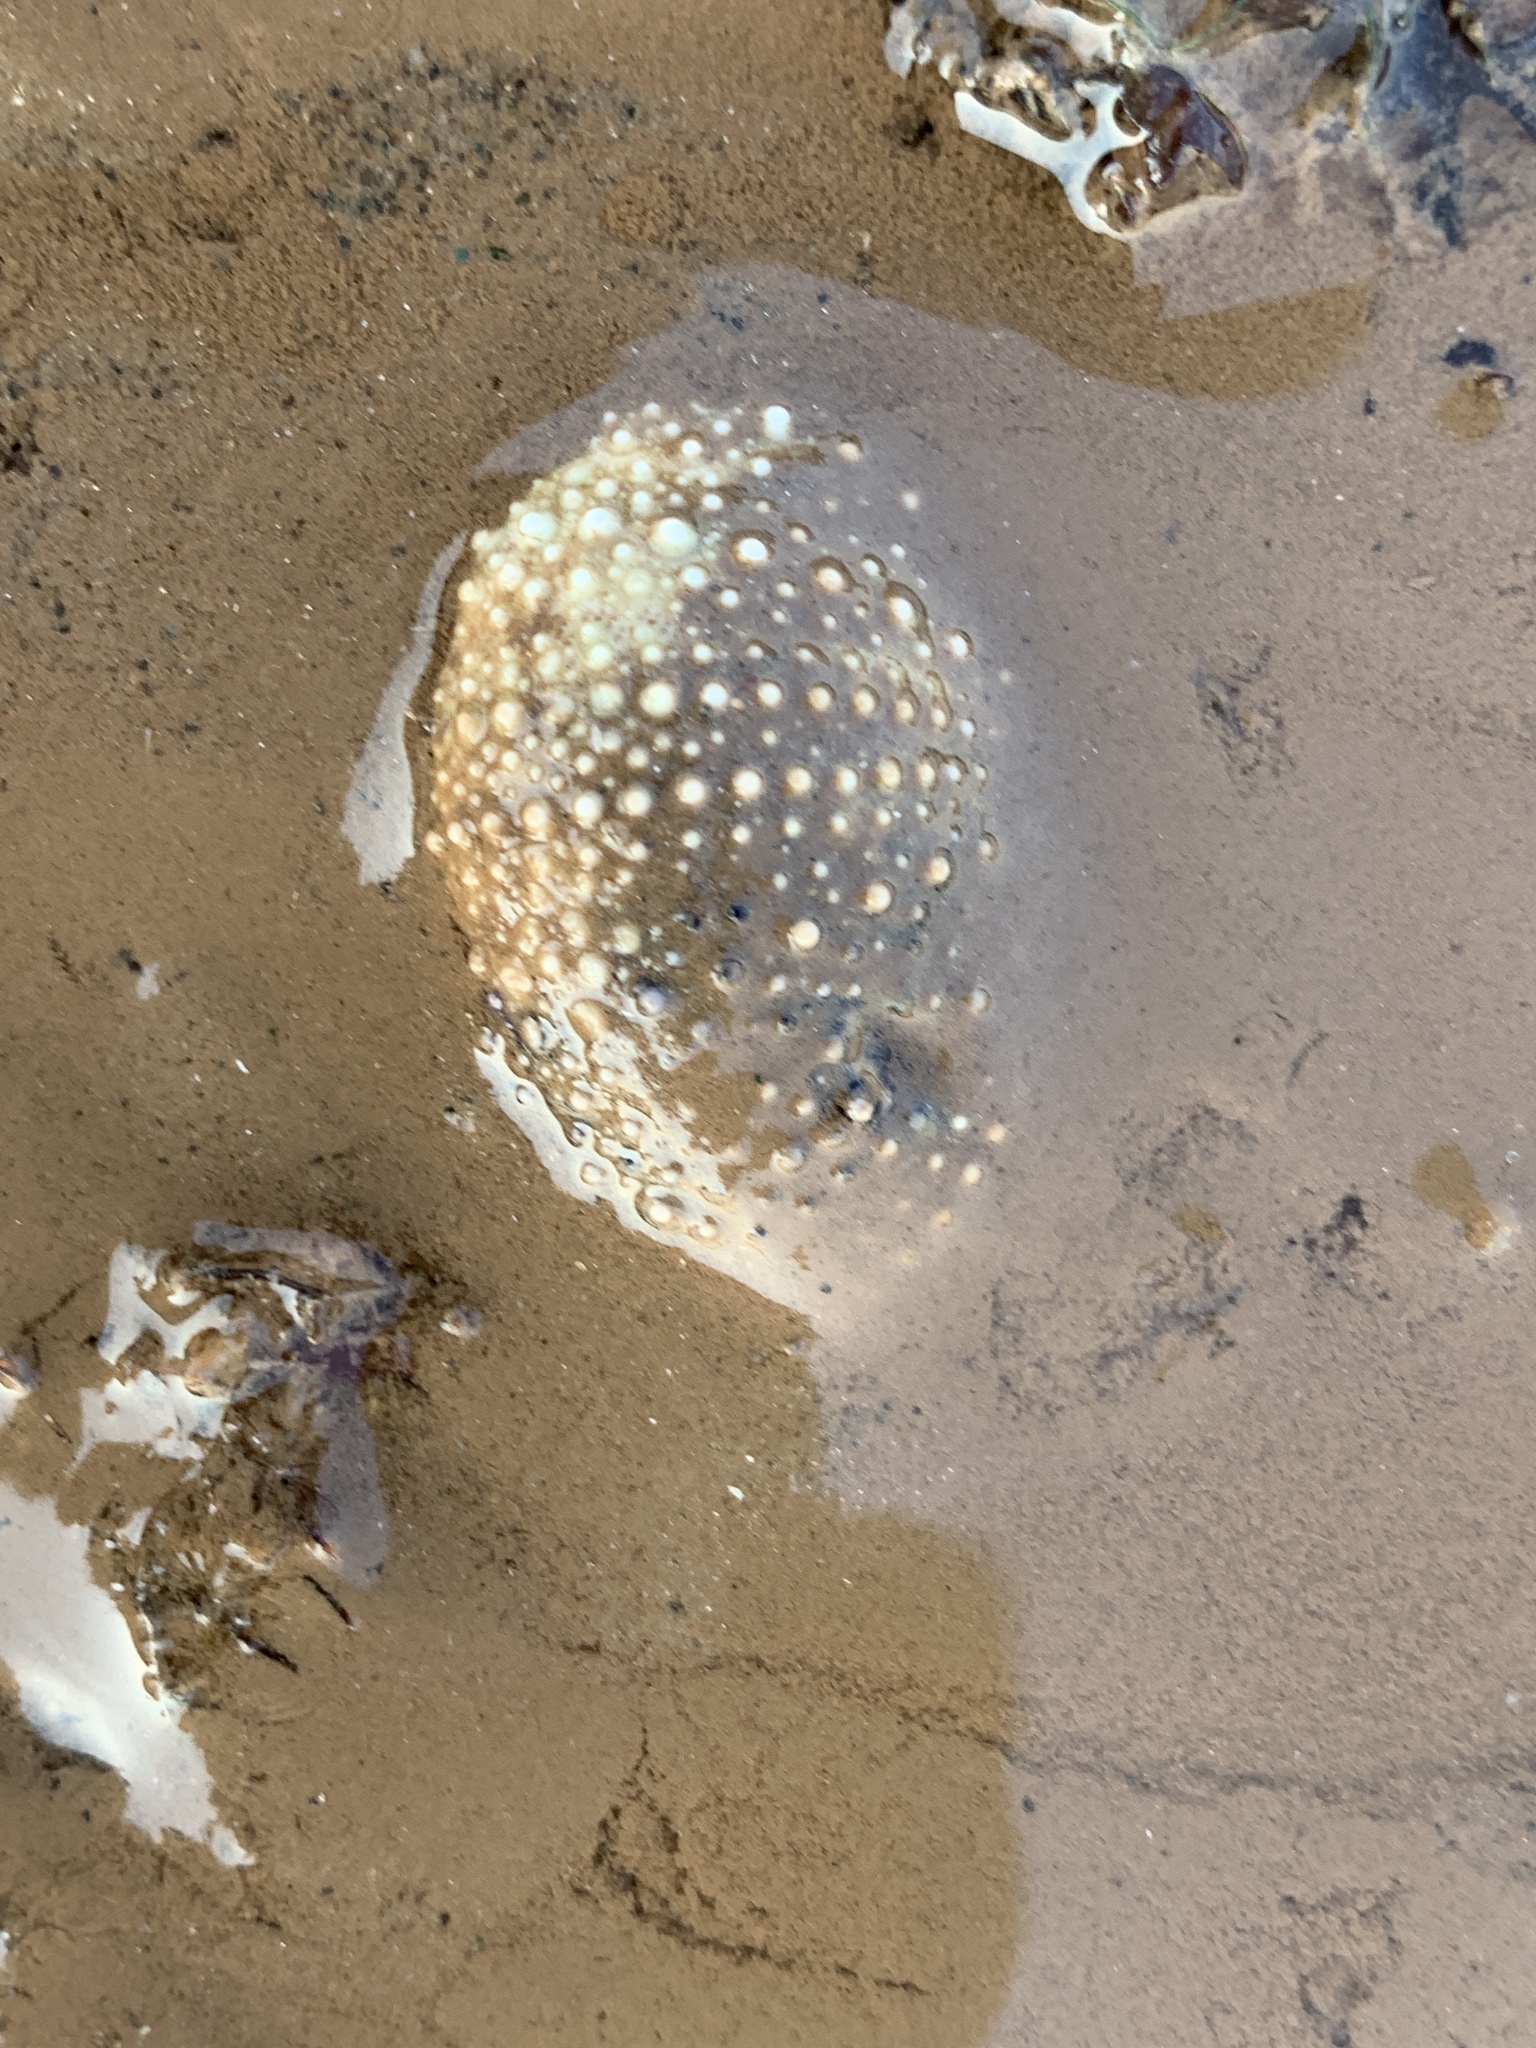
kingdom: Animalia
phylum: Echinodermata
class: Echinoidea
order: Camarodonta
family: Strongylocentrotidae
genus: Strongylocentrotus
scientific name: Strongylocentrotus droebachiensis
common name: Northern sea urchin
